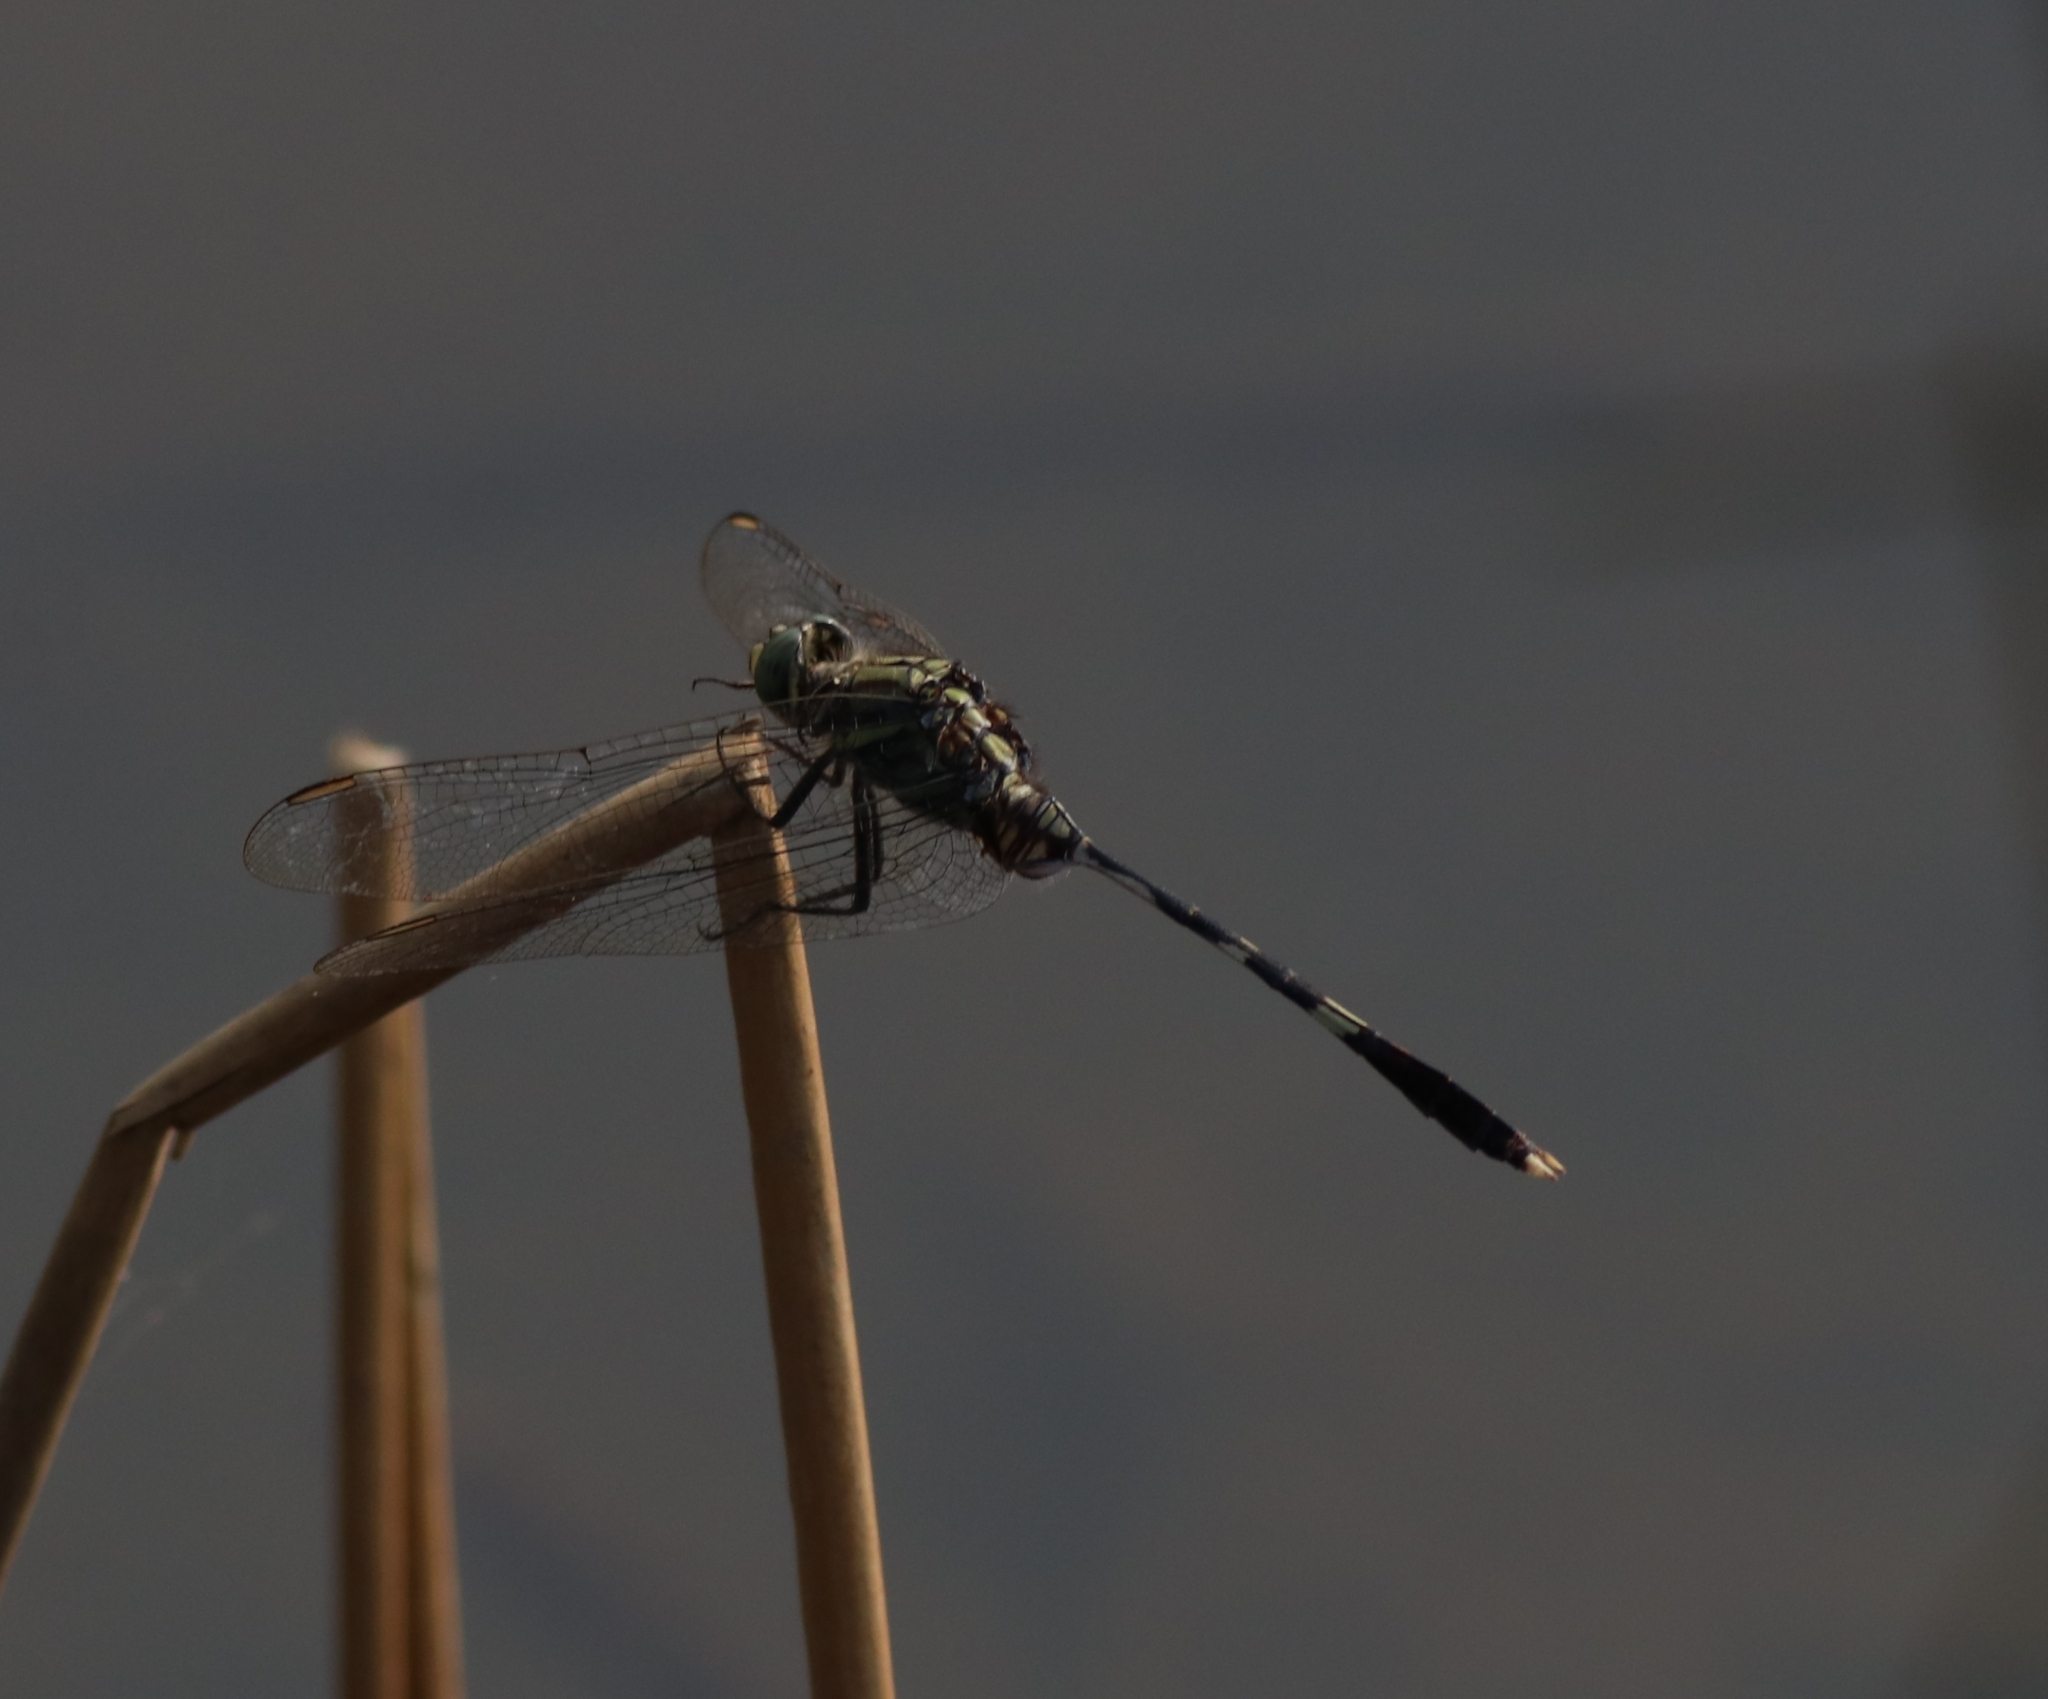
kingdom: Animalia
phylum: Arthropoda
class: Insecta
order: Odonata
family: Libellulidae
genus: Orthetrum
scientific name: Orthetrum sabina
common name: Slender skimmer
